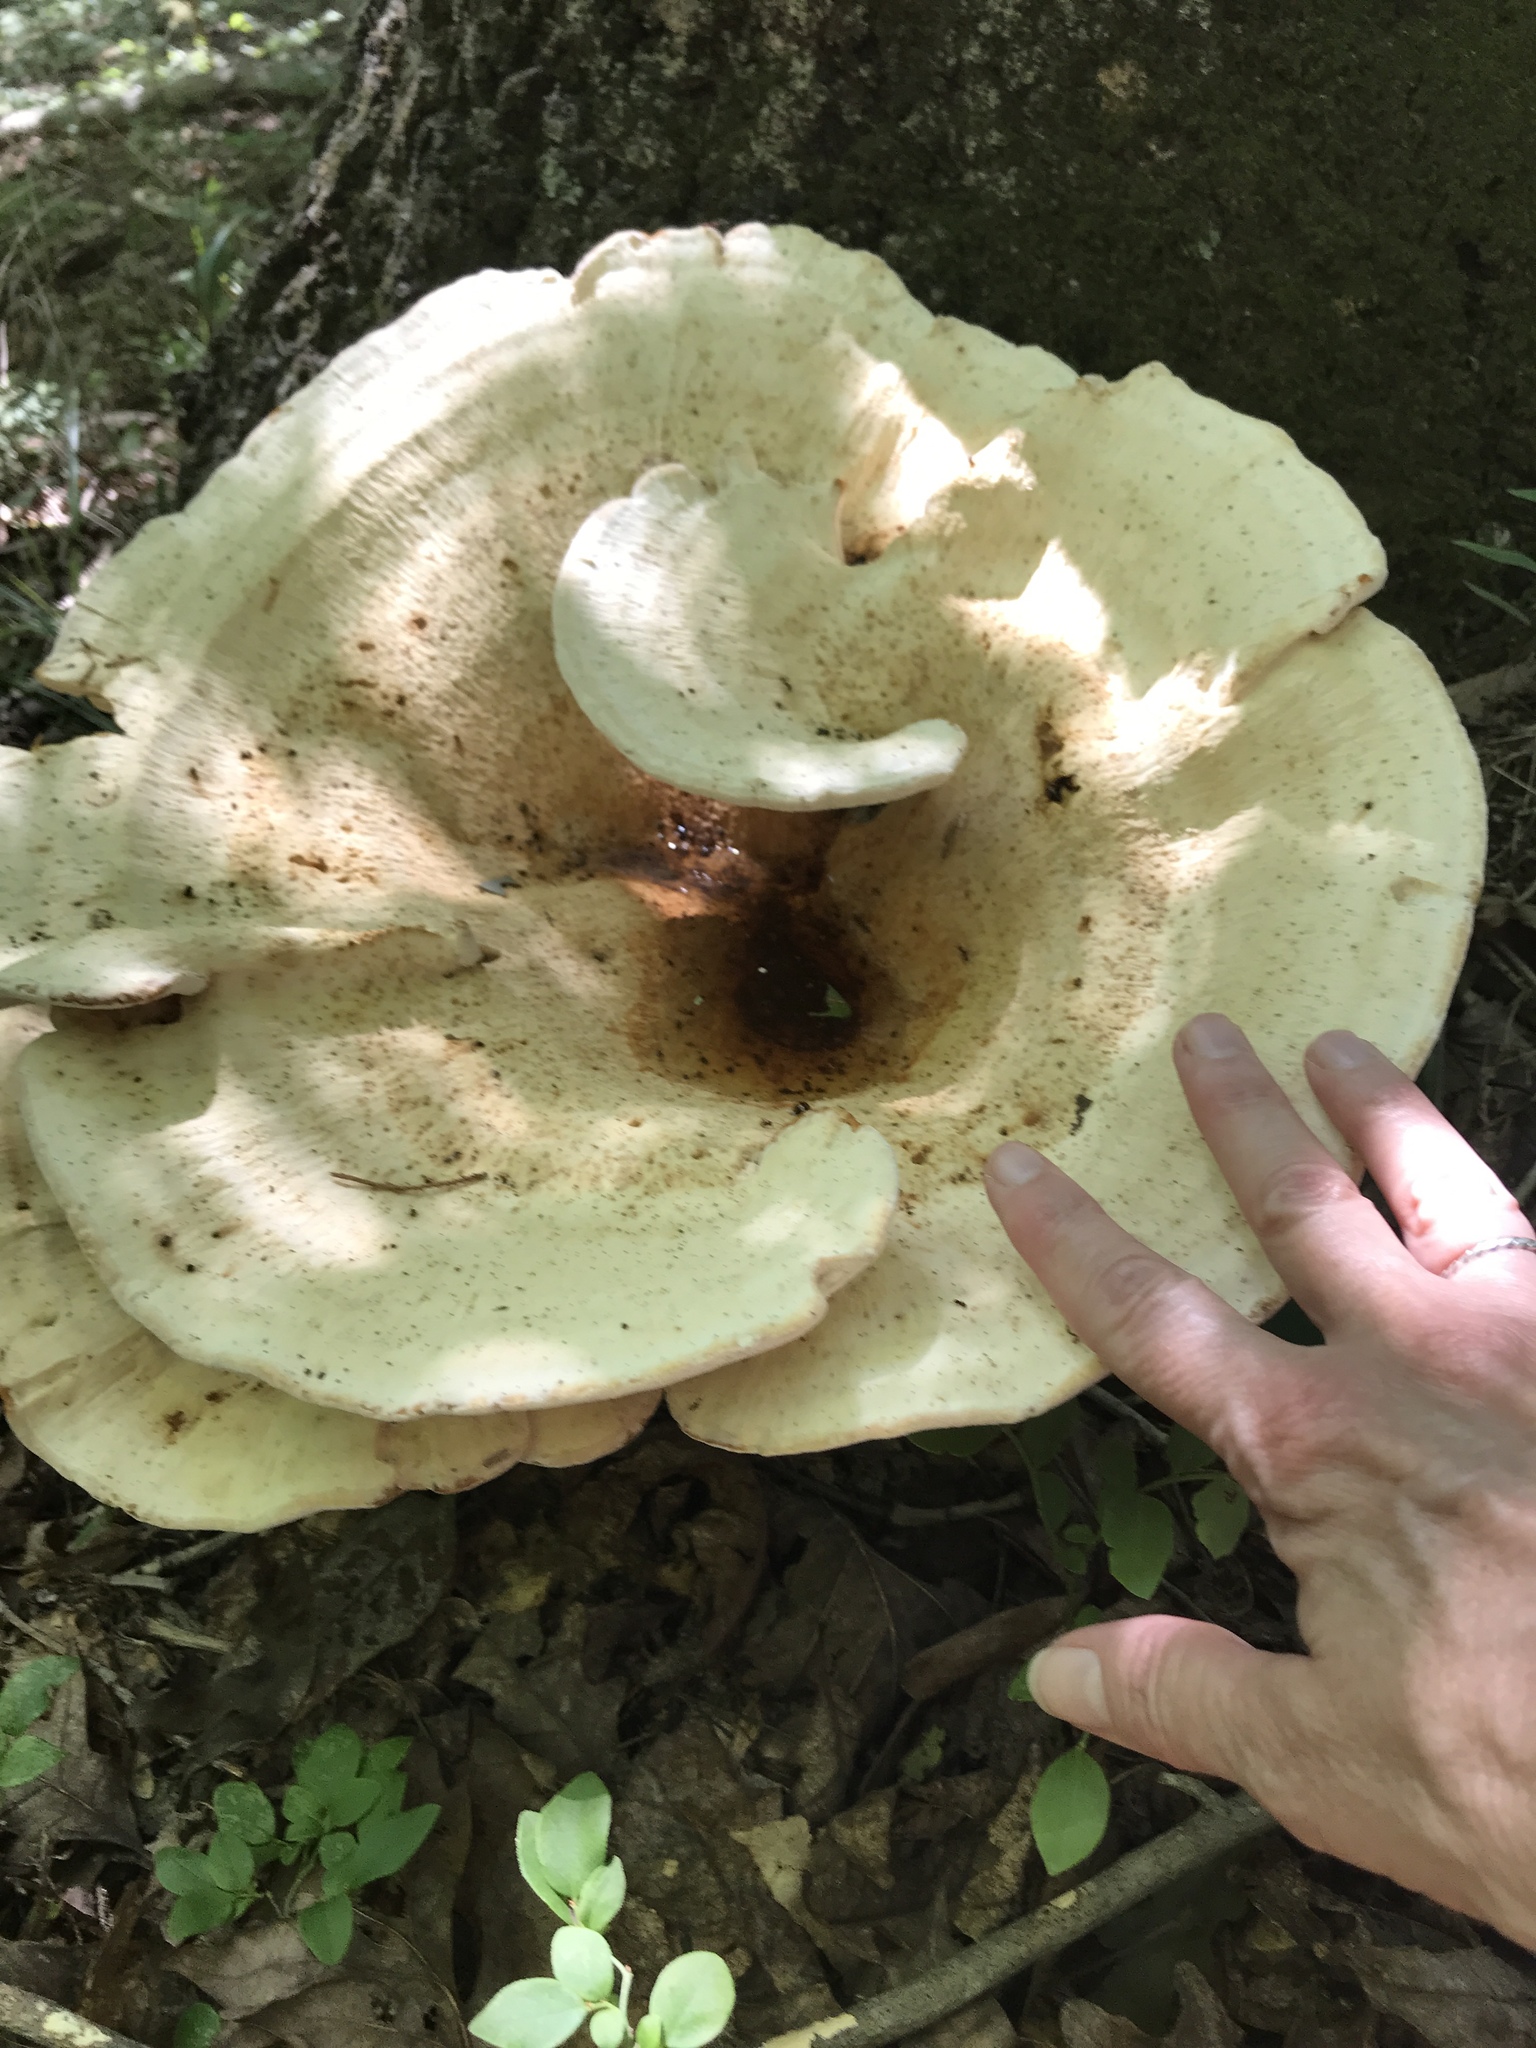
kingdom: Fungi
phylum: Basidiomycota
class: Agaricomycetes
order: Russulales
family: Bondarzewiaceae
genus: Bondarzewia
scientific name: Bondarzewia berkeleyi
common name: Berkeley's polypore
